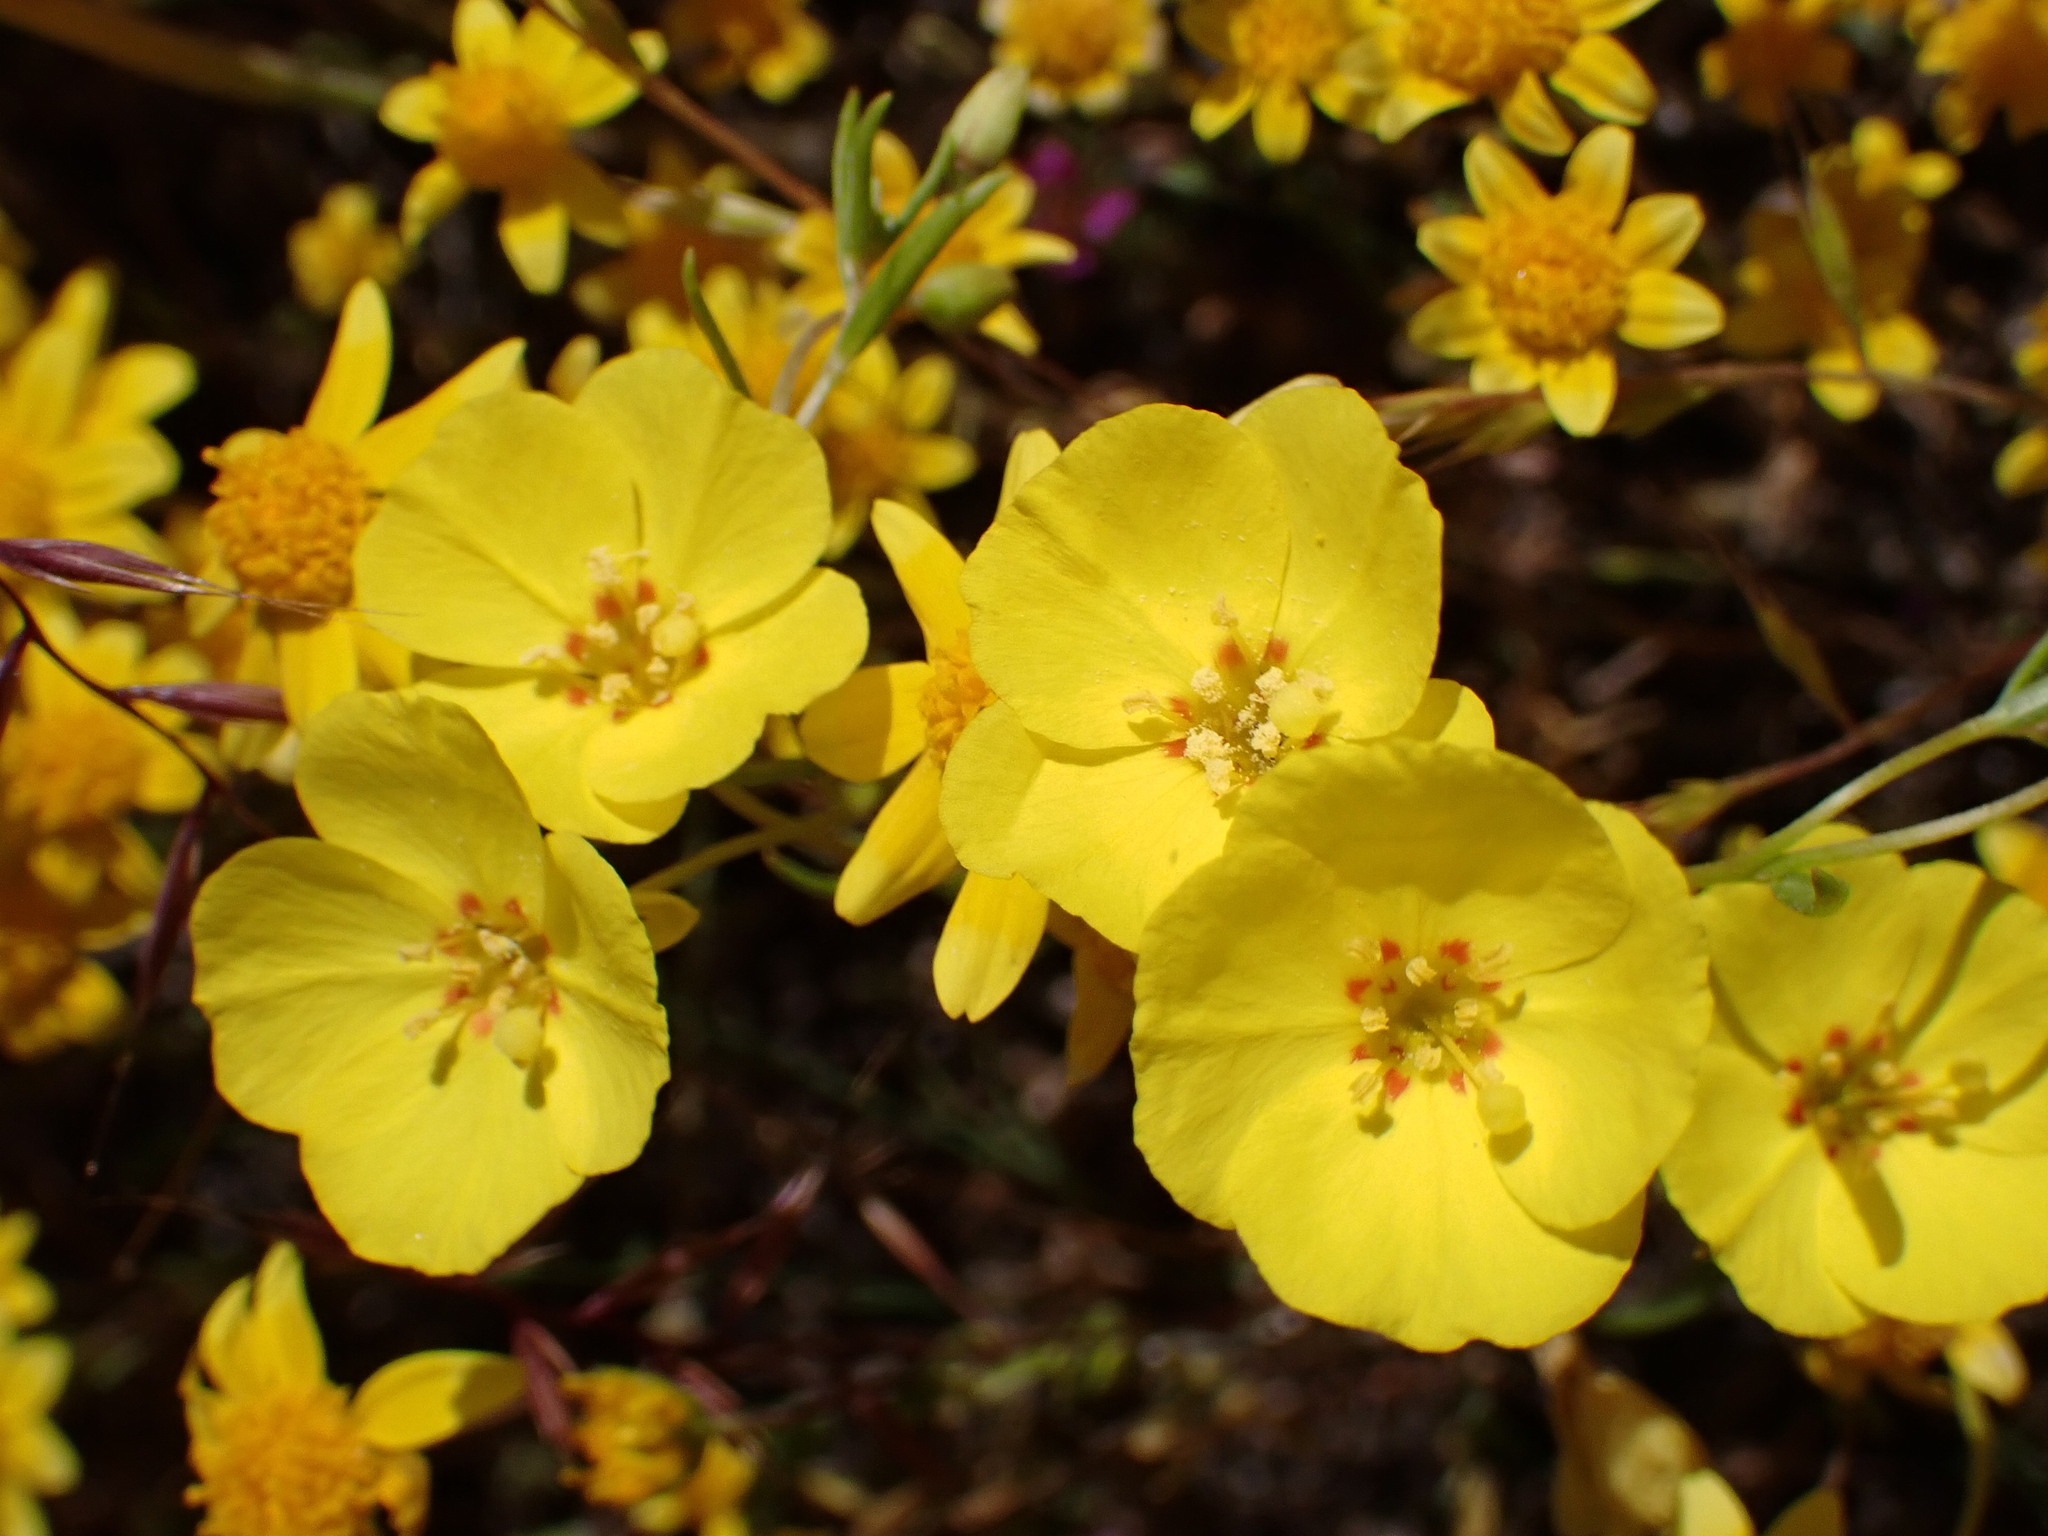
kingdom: Plantae
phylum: Tracheophyta
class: Magnoliopsida
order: Myrtales
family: Onagraceae
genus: Camissonia
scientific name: Camissonia campestris
